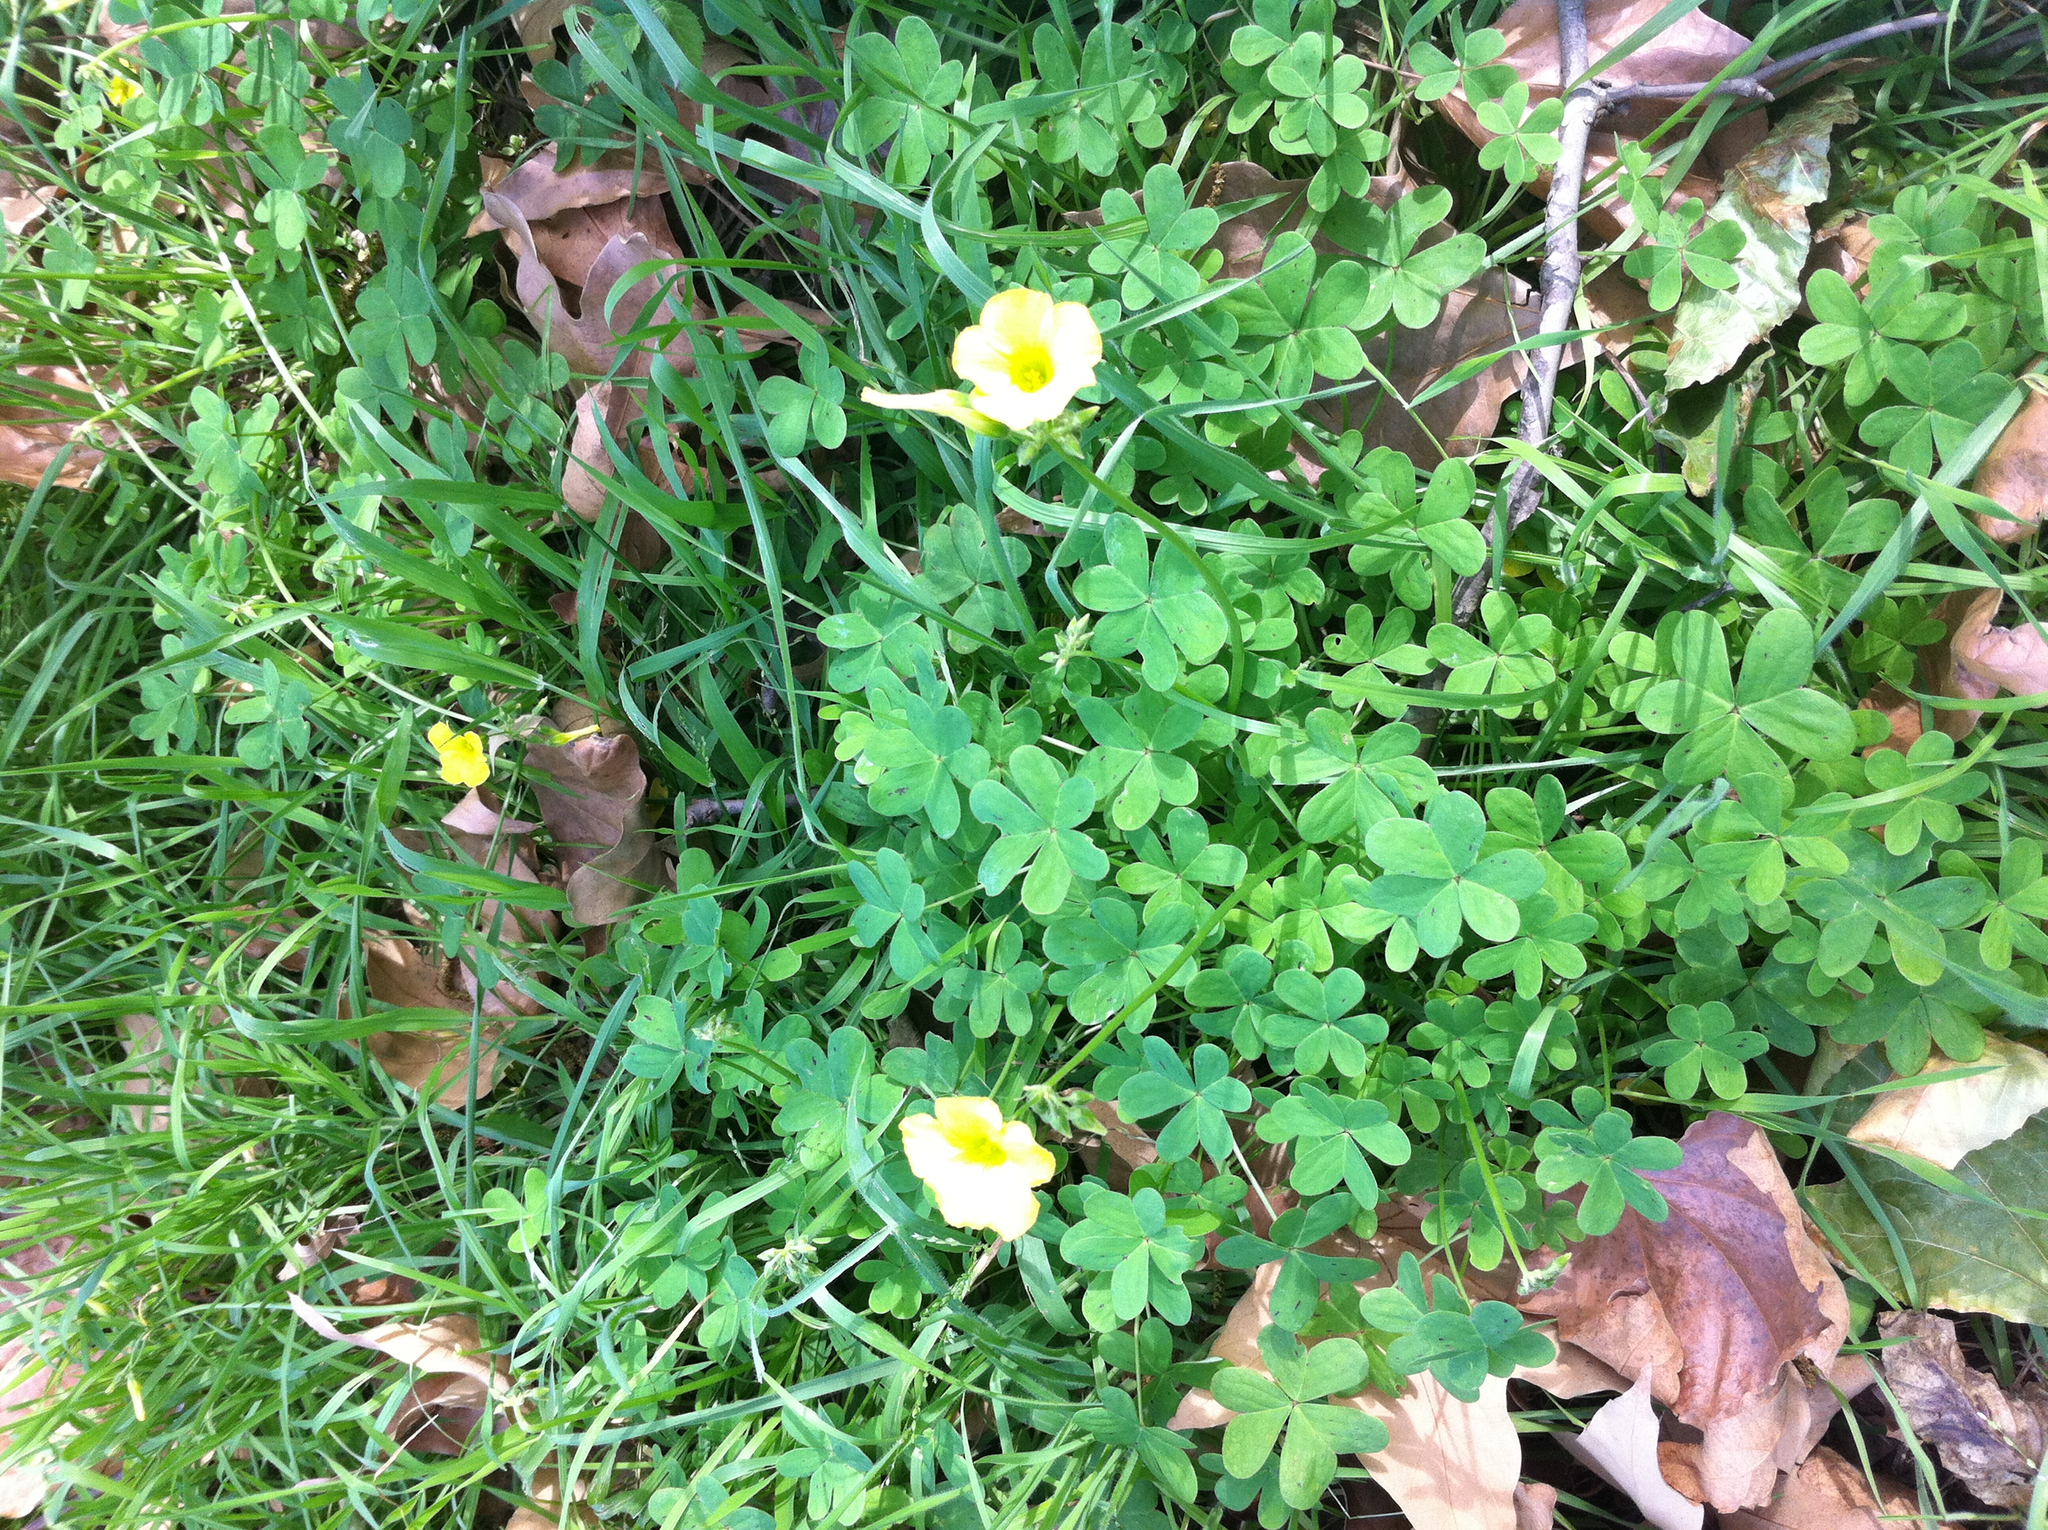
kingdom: Plantae
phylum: Tracheophyta
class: Magnoliopsida
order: Oxalidales
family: Oxalidaceae
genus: Oxalis
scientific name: Oxalis pes-caprae
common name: Bermuda-buttercup
